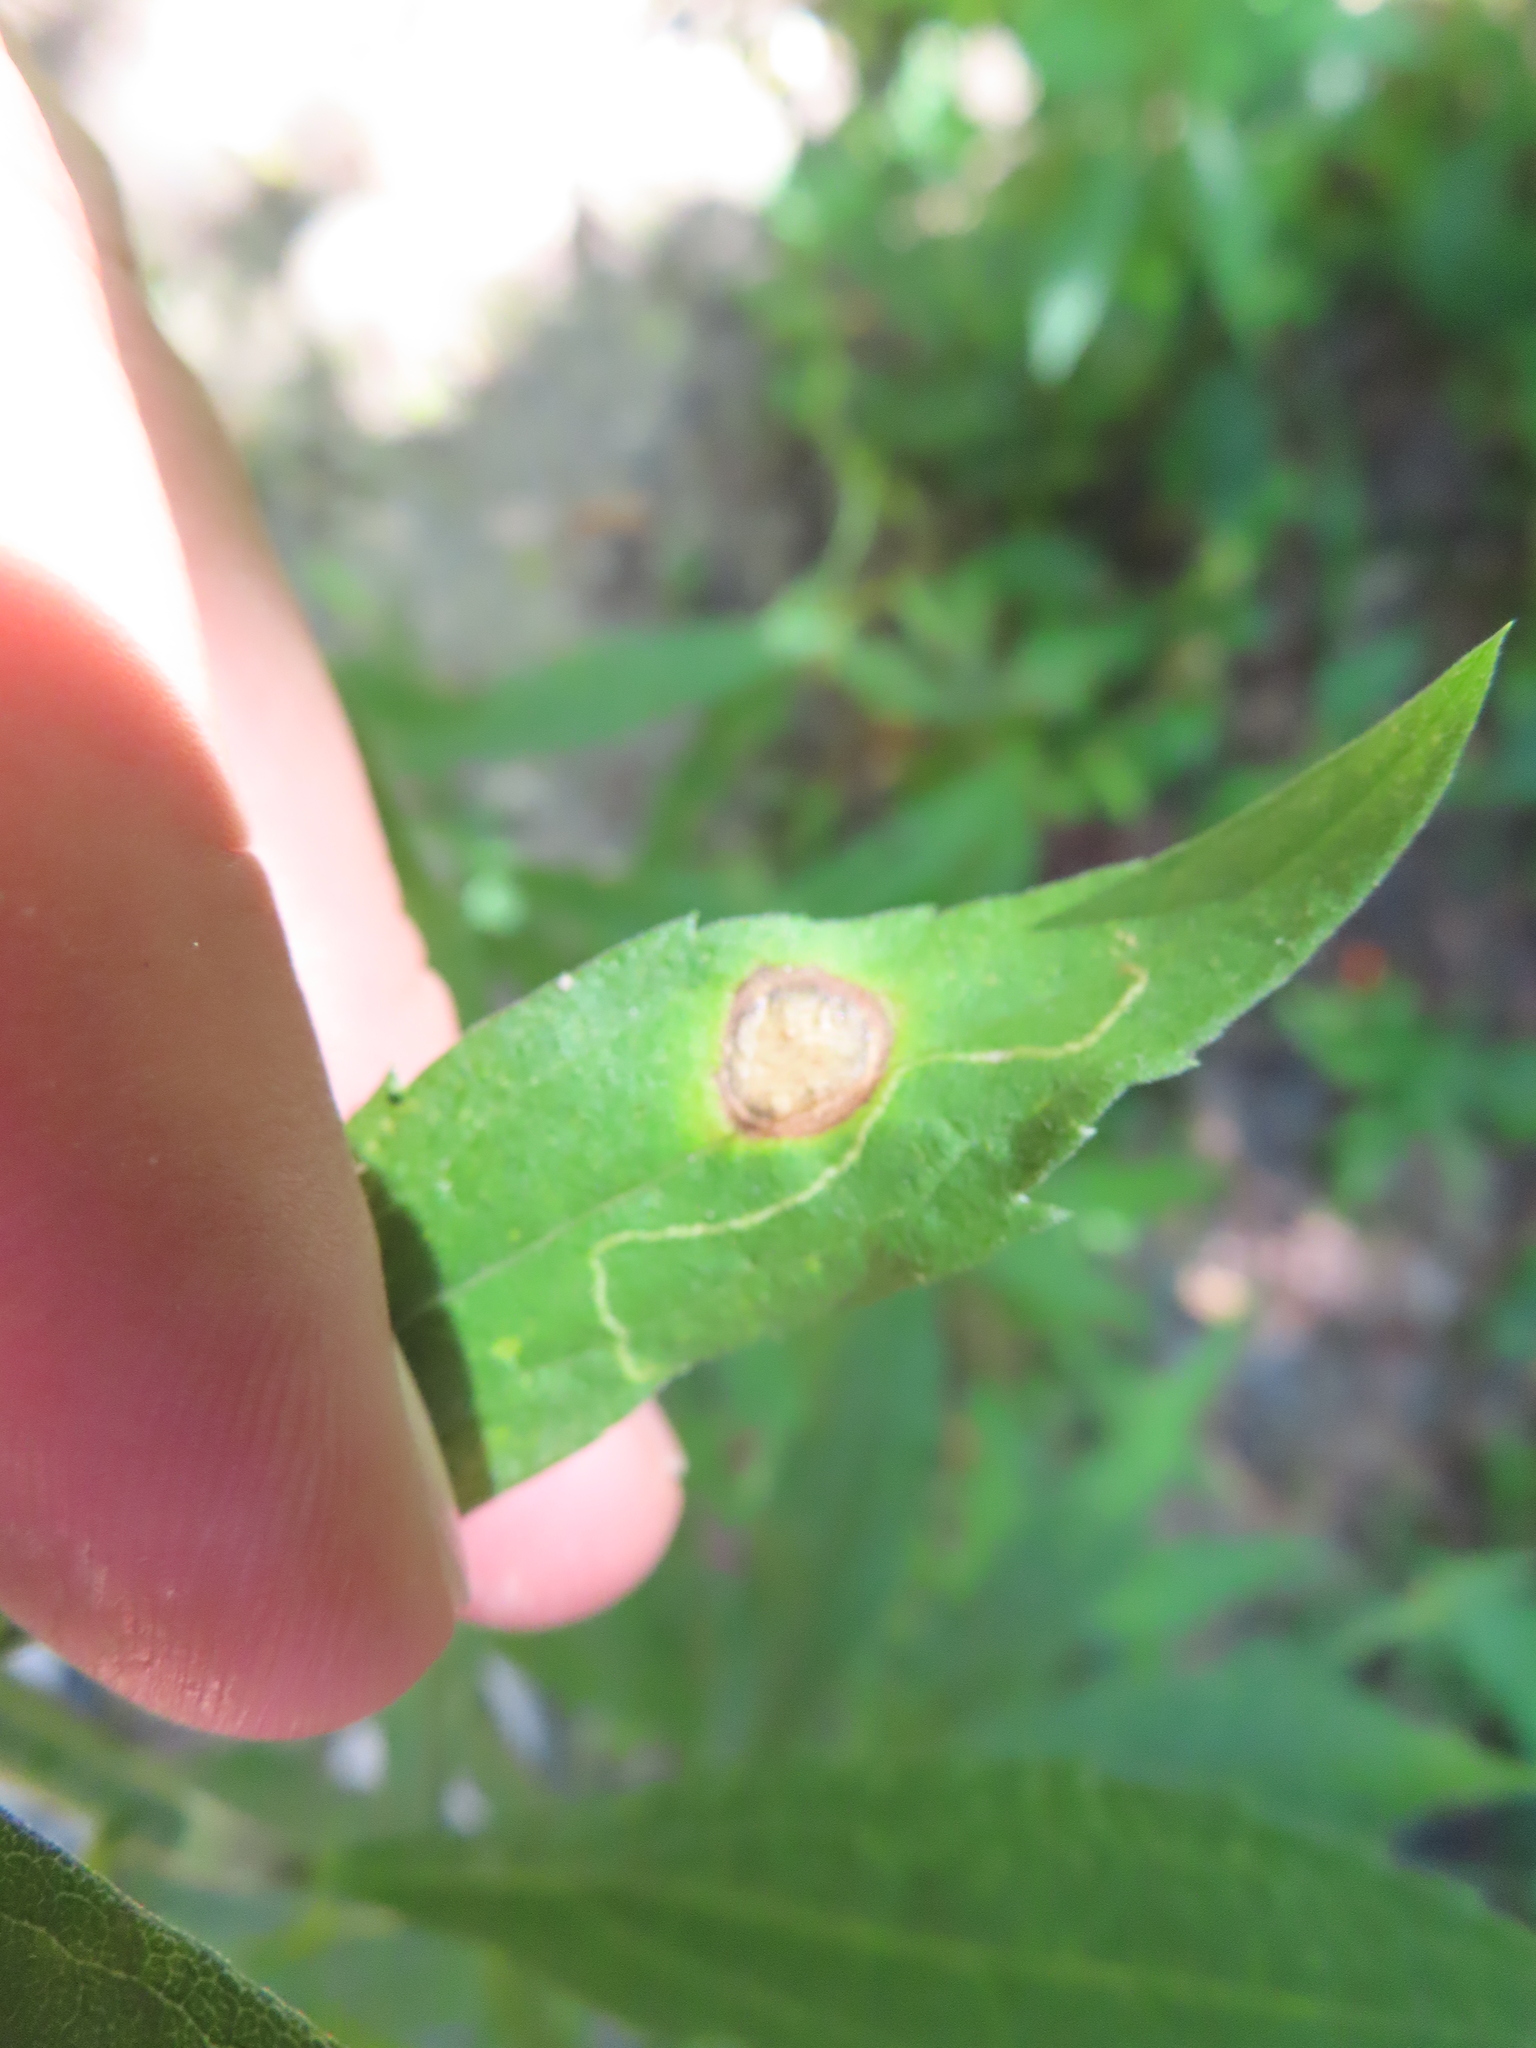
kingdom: Animalia
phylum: Arthropoda
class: Insecta
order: Diptera
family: Cecidomyiidae
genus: Asteromyia
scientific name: Asteromyia carbonifera
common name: Carbonifera goldenrod gall midge
